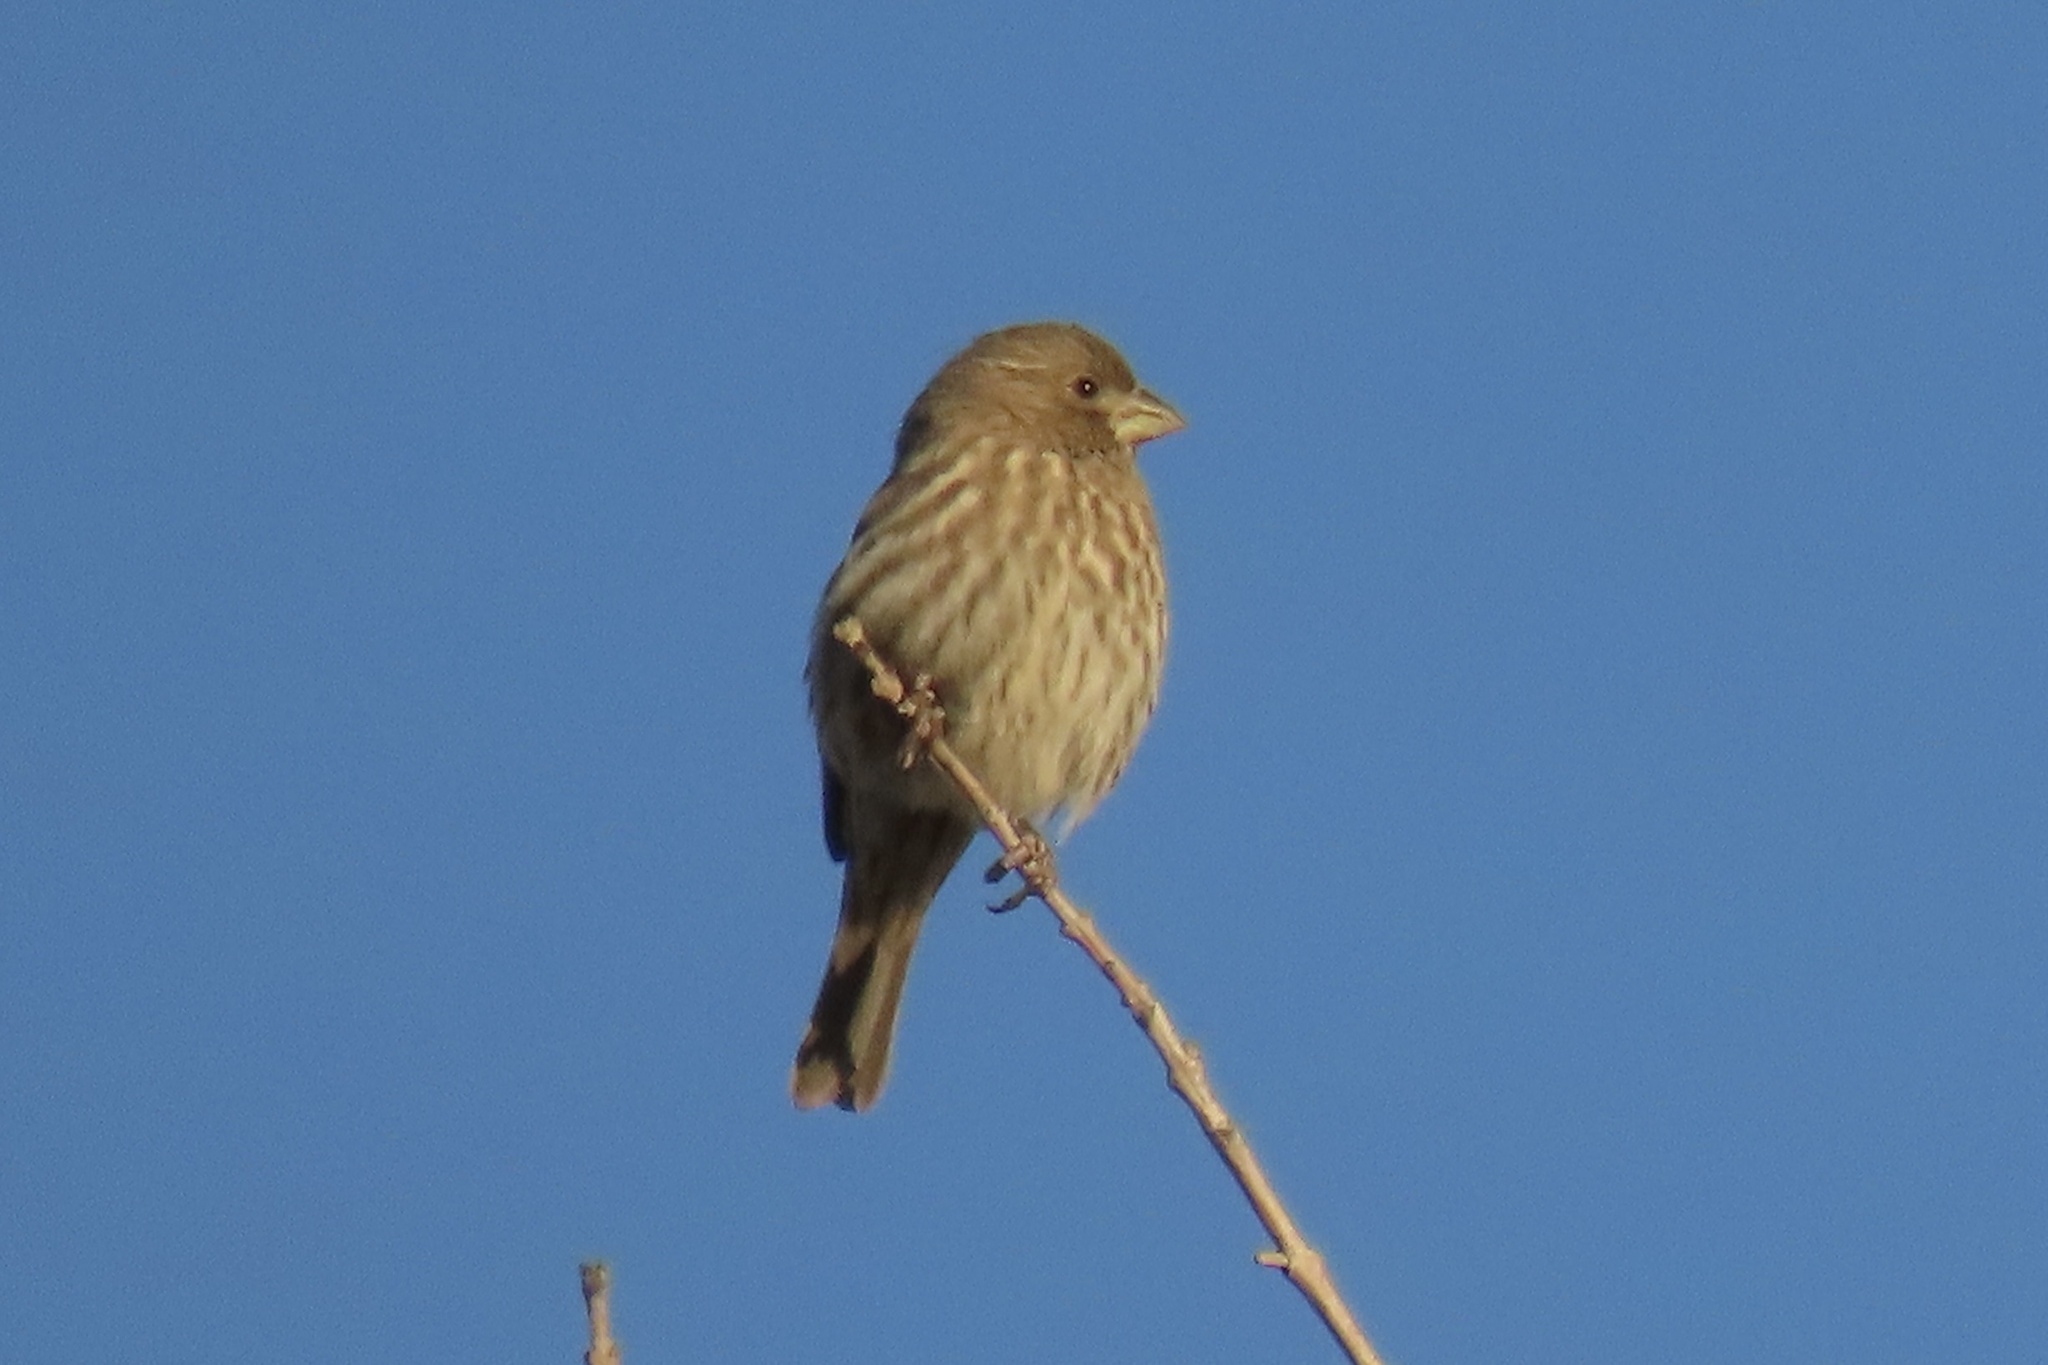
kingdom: Animalia
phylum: Chordata
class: Aves
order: Passeriformes
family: Fringillidae
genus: Haemorhous
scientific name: Haemorhous mexicanus
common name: House finch
